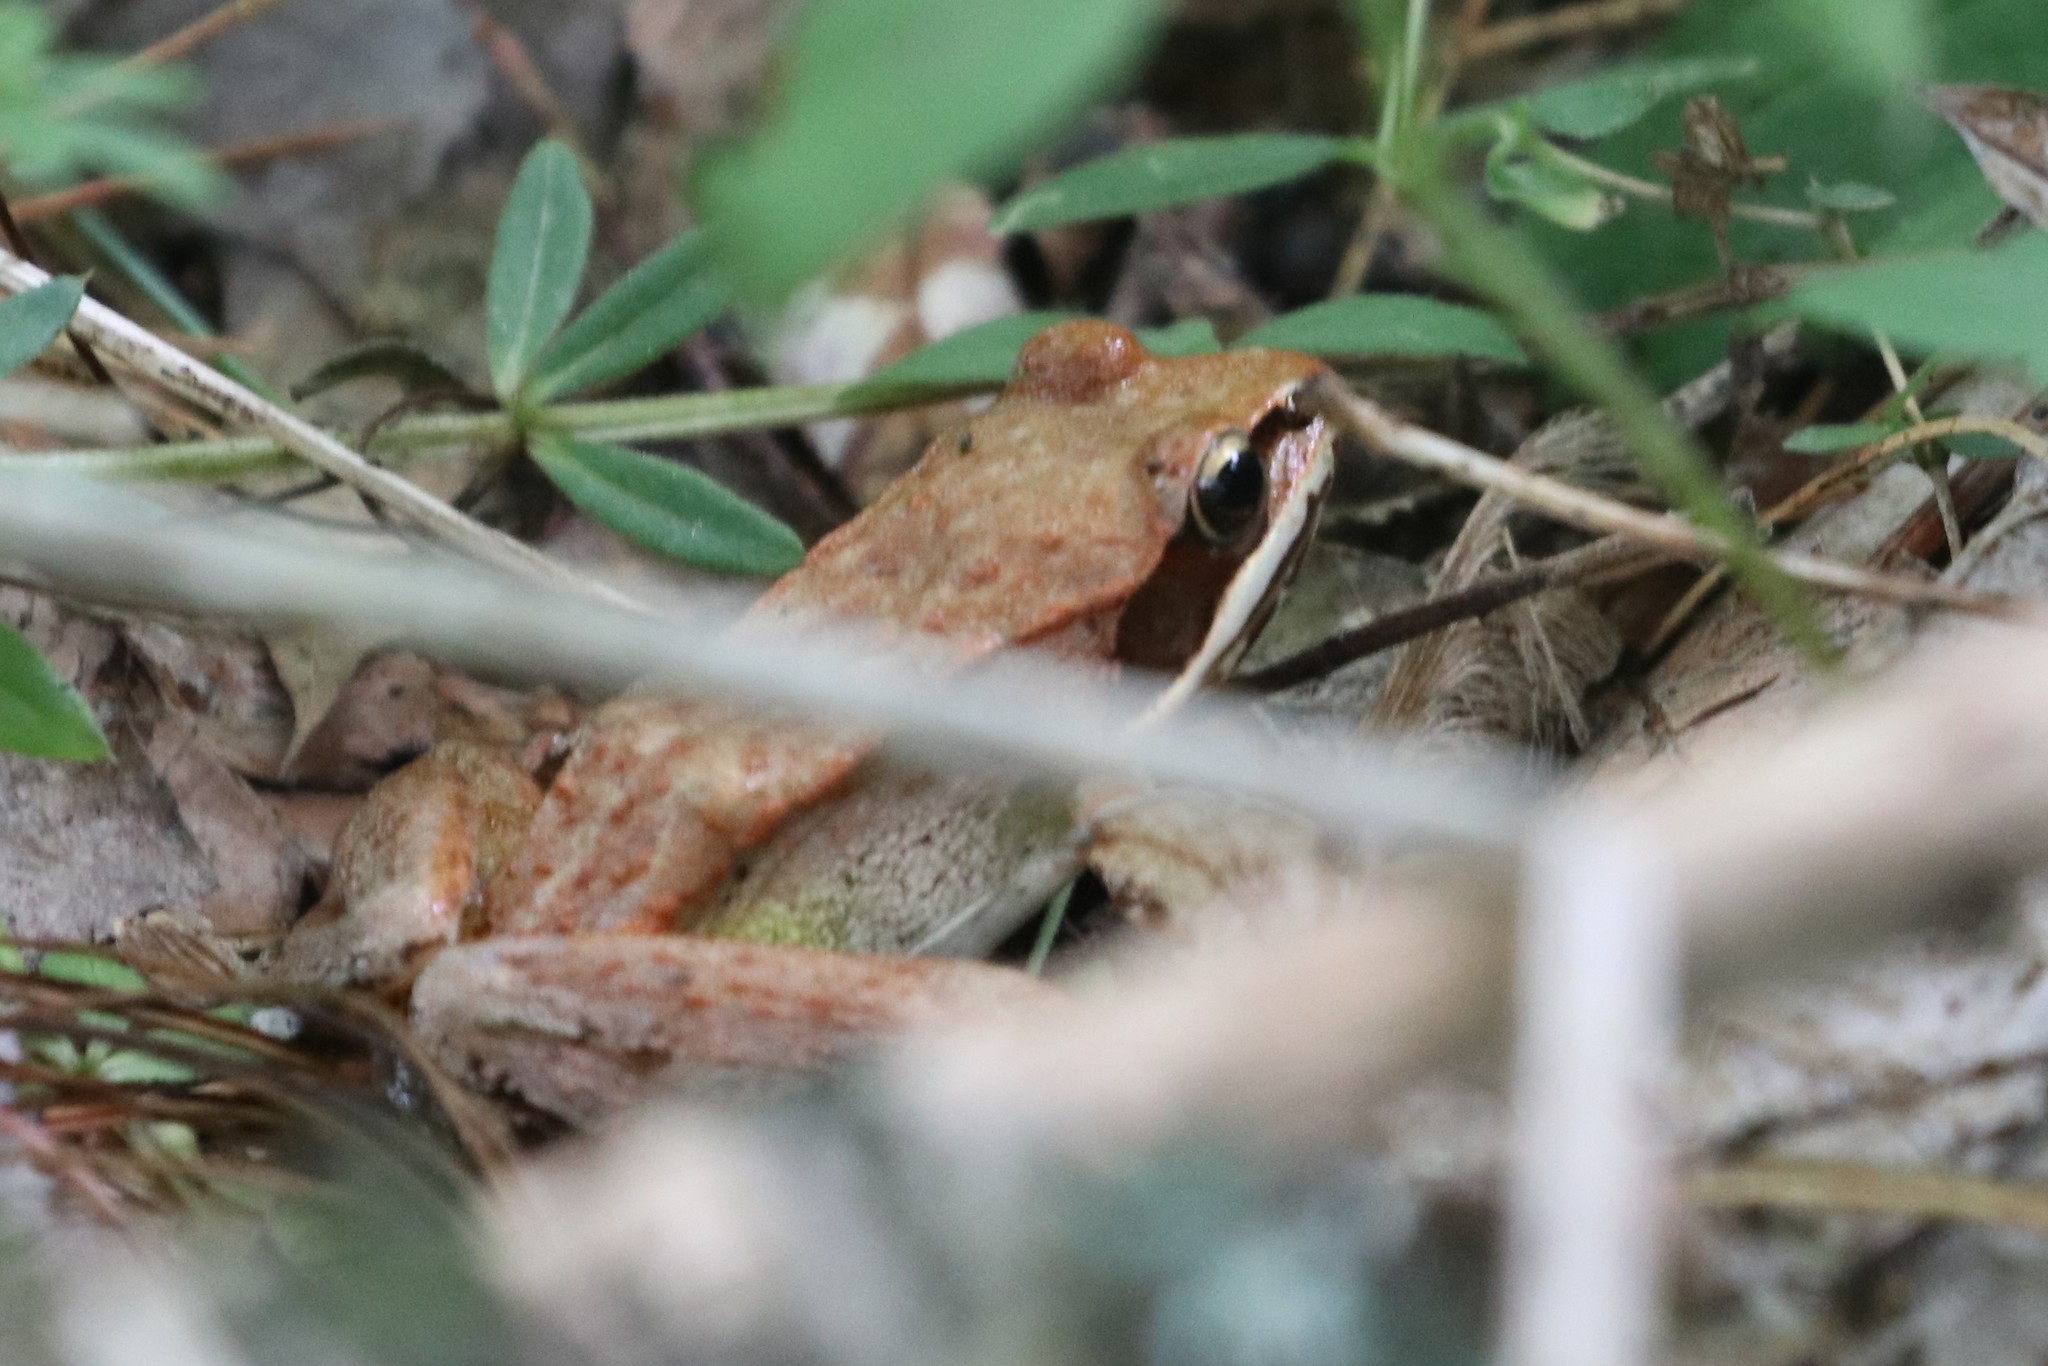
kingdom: Animalia
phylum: Chordata
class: Amphibia
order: Anura
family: Ranidae
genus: Lithobates
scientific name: Lithobates sylvaticus
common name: Wood frog
